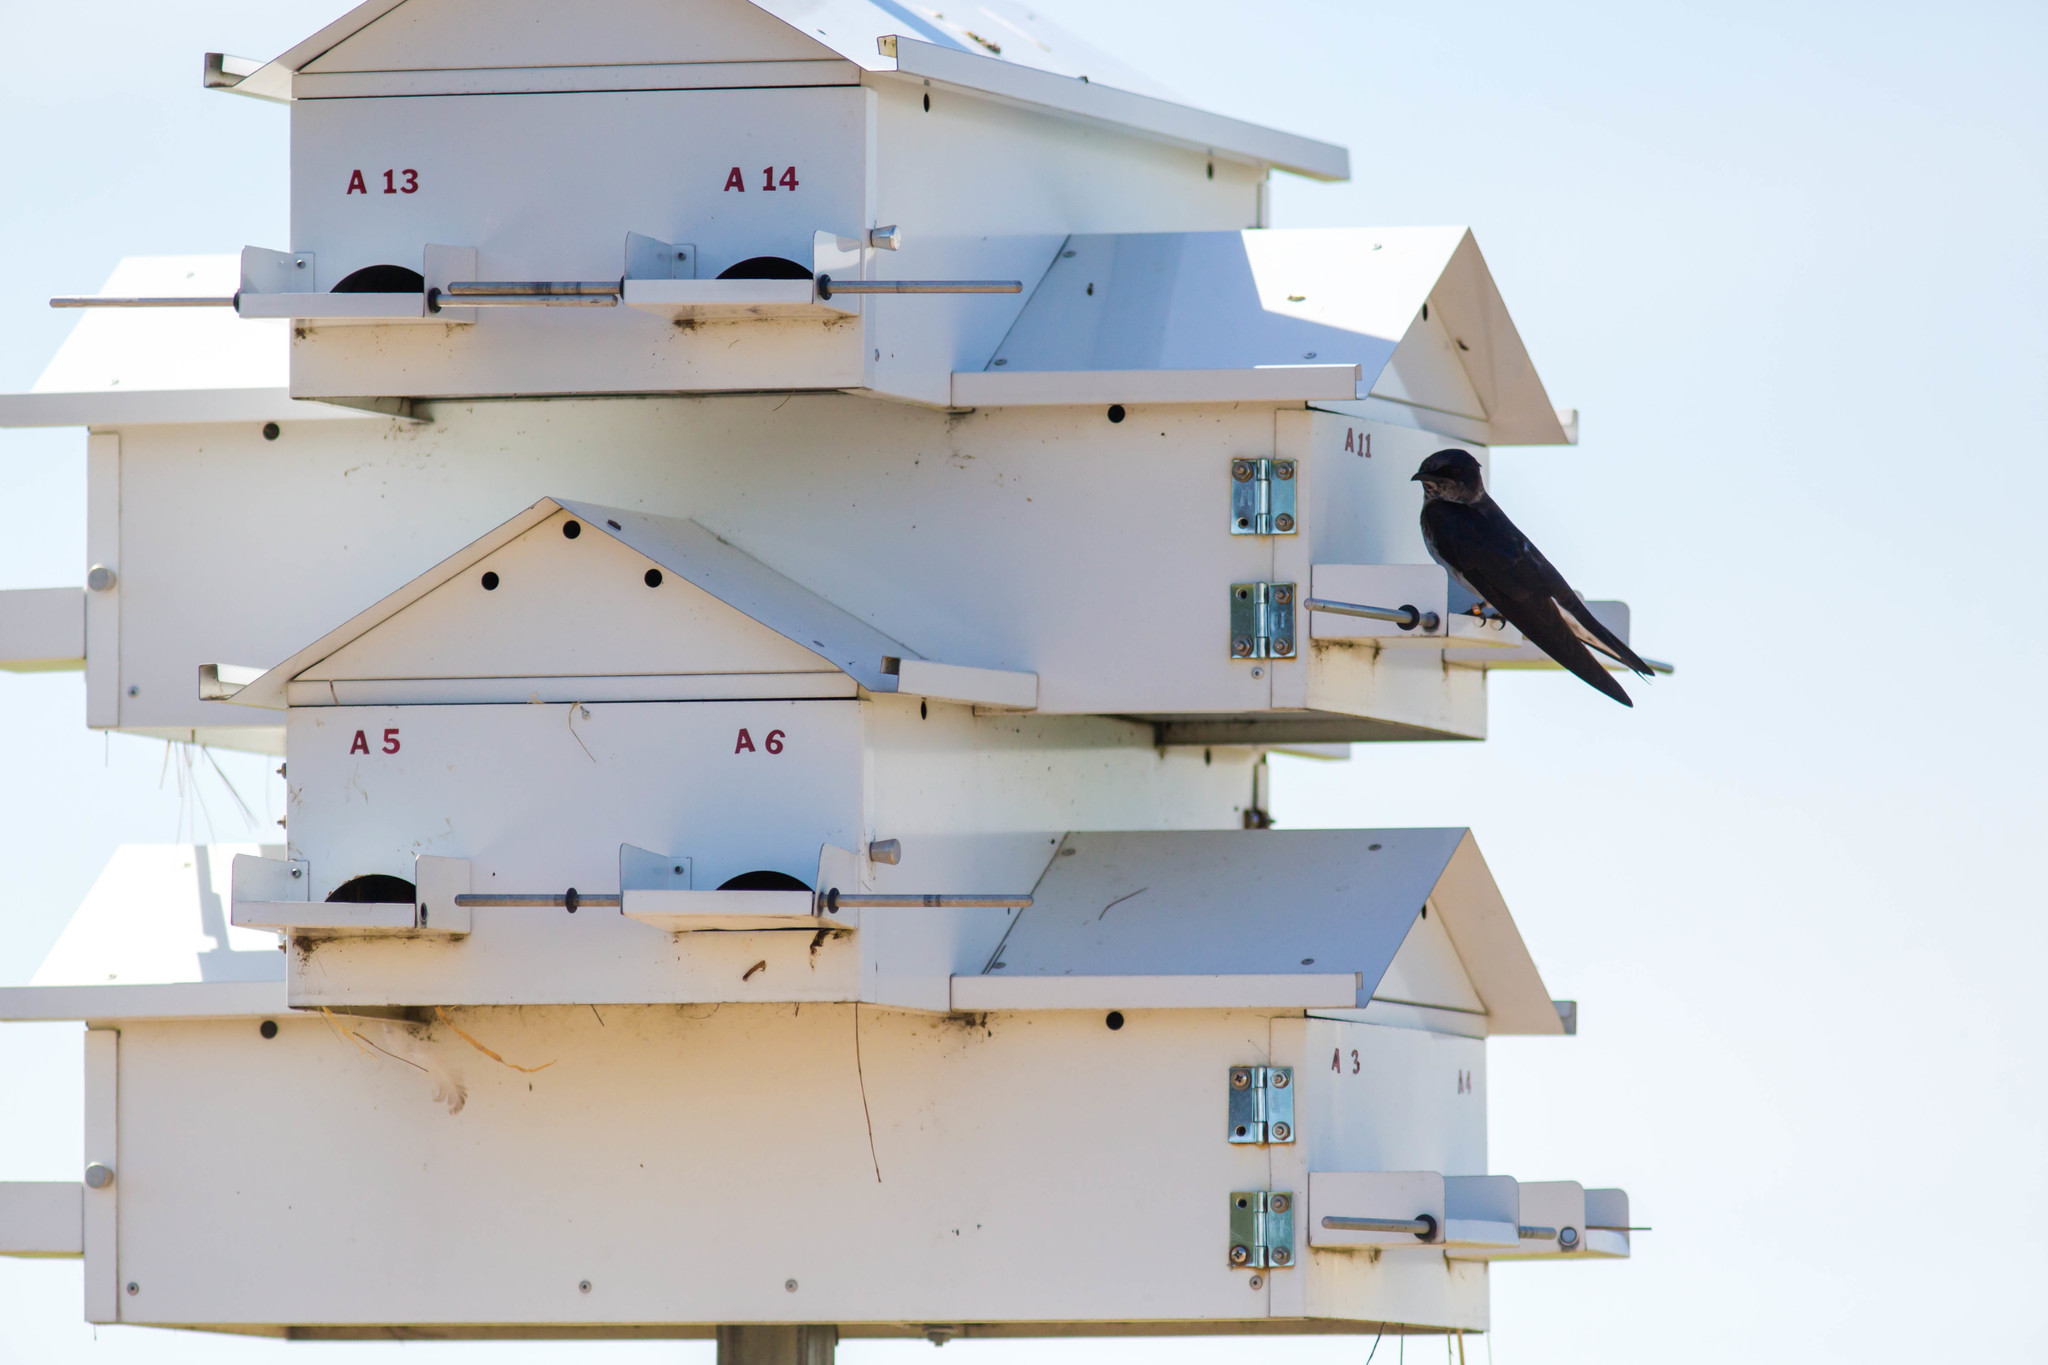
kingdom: Animalia
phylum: Chordata
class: Aves
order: Passeriformes
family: Hirundinidae
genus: Progne
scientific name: Progne subis
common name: Purple martin
